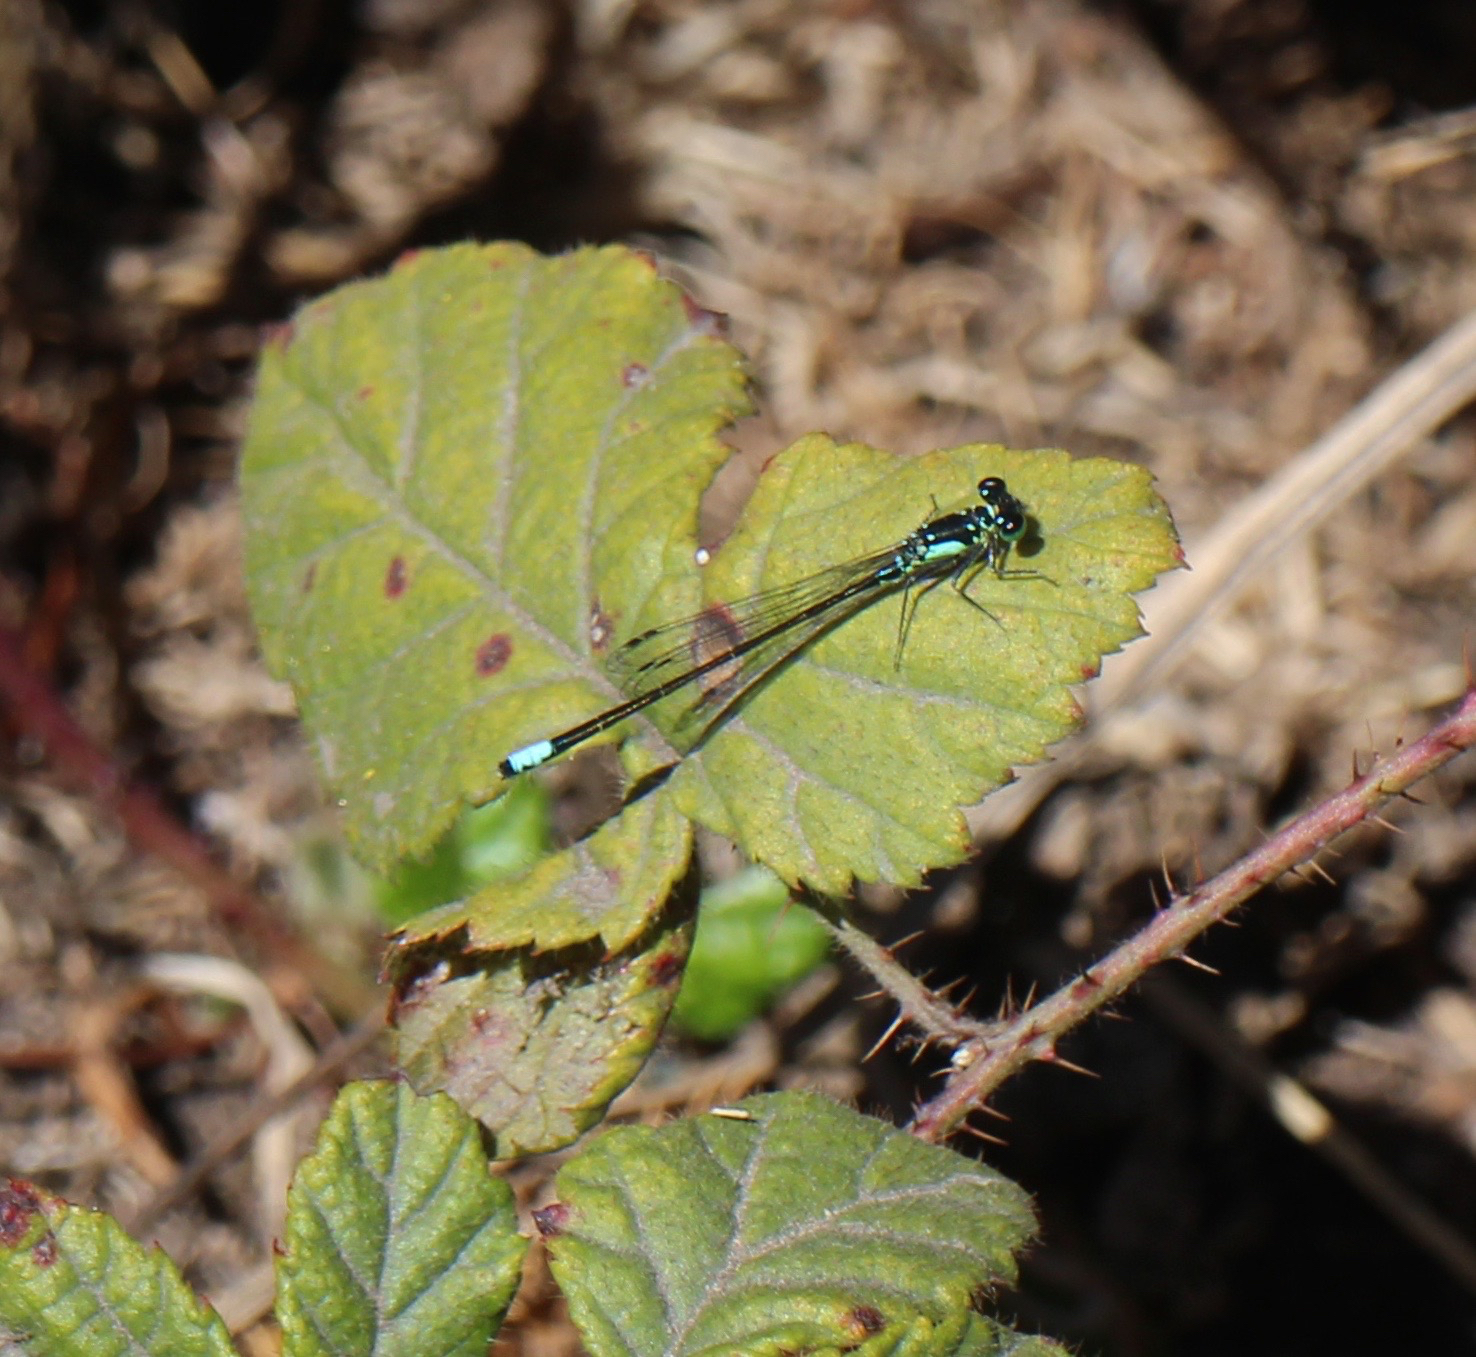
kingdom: Animalia
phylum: Arthropoda
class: Insecta
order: Odonata
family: Coenagrionidae
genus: Ischnura
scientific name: Ischnura cervula
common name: Pacific forktail
